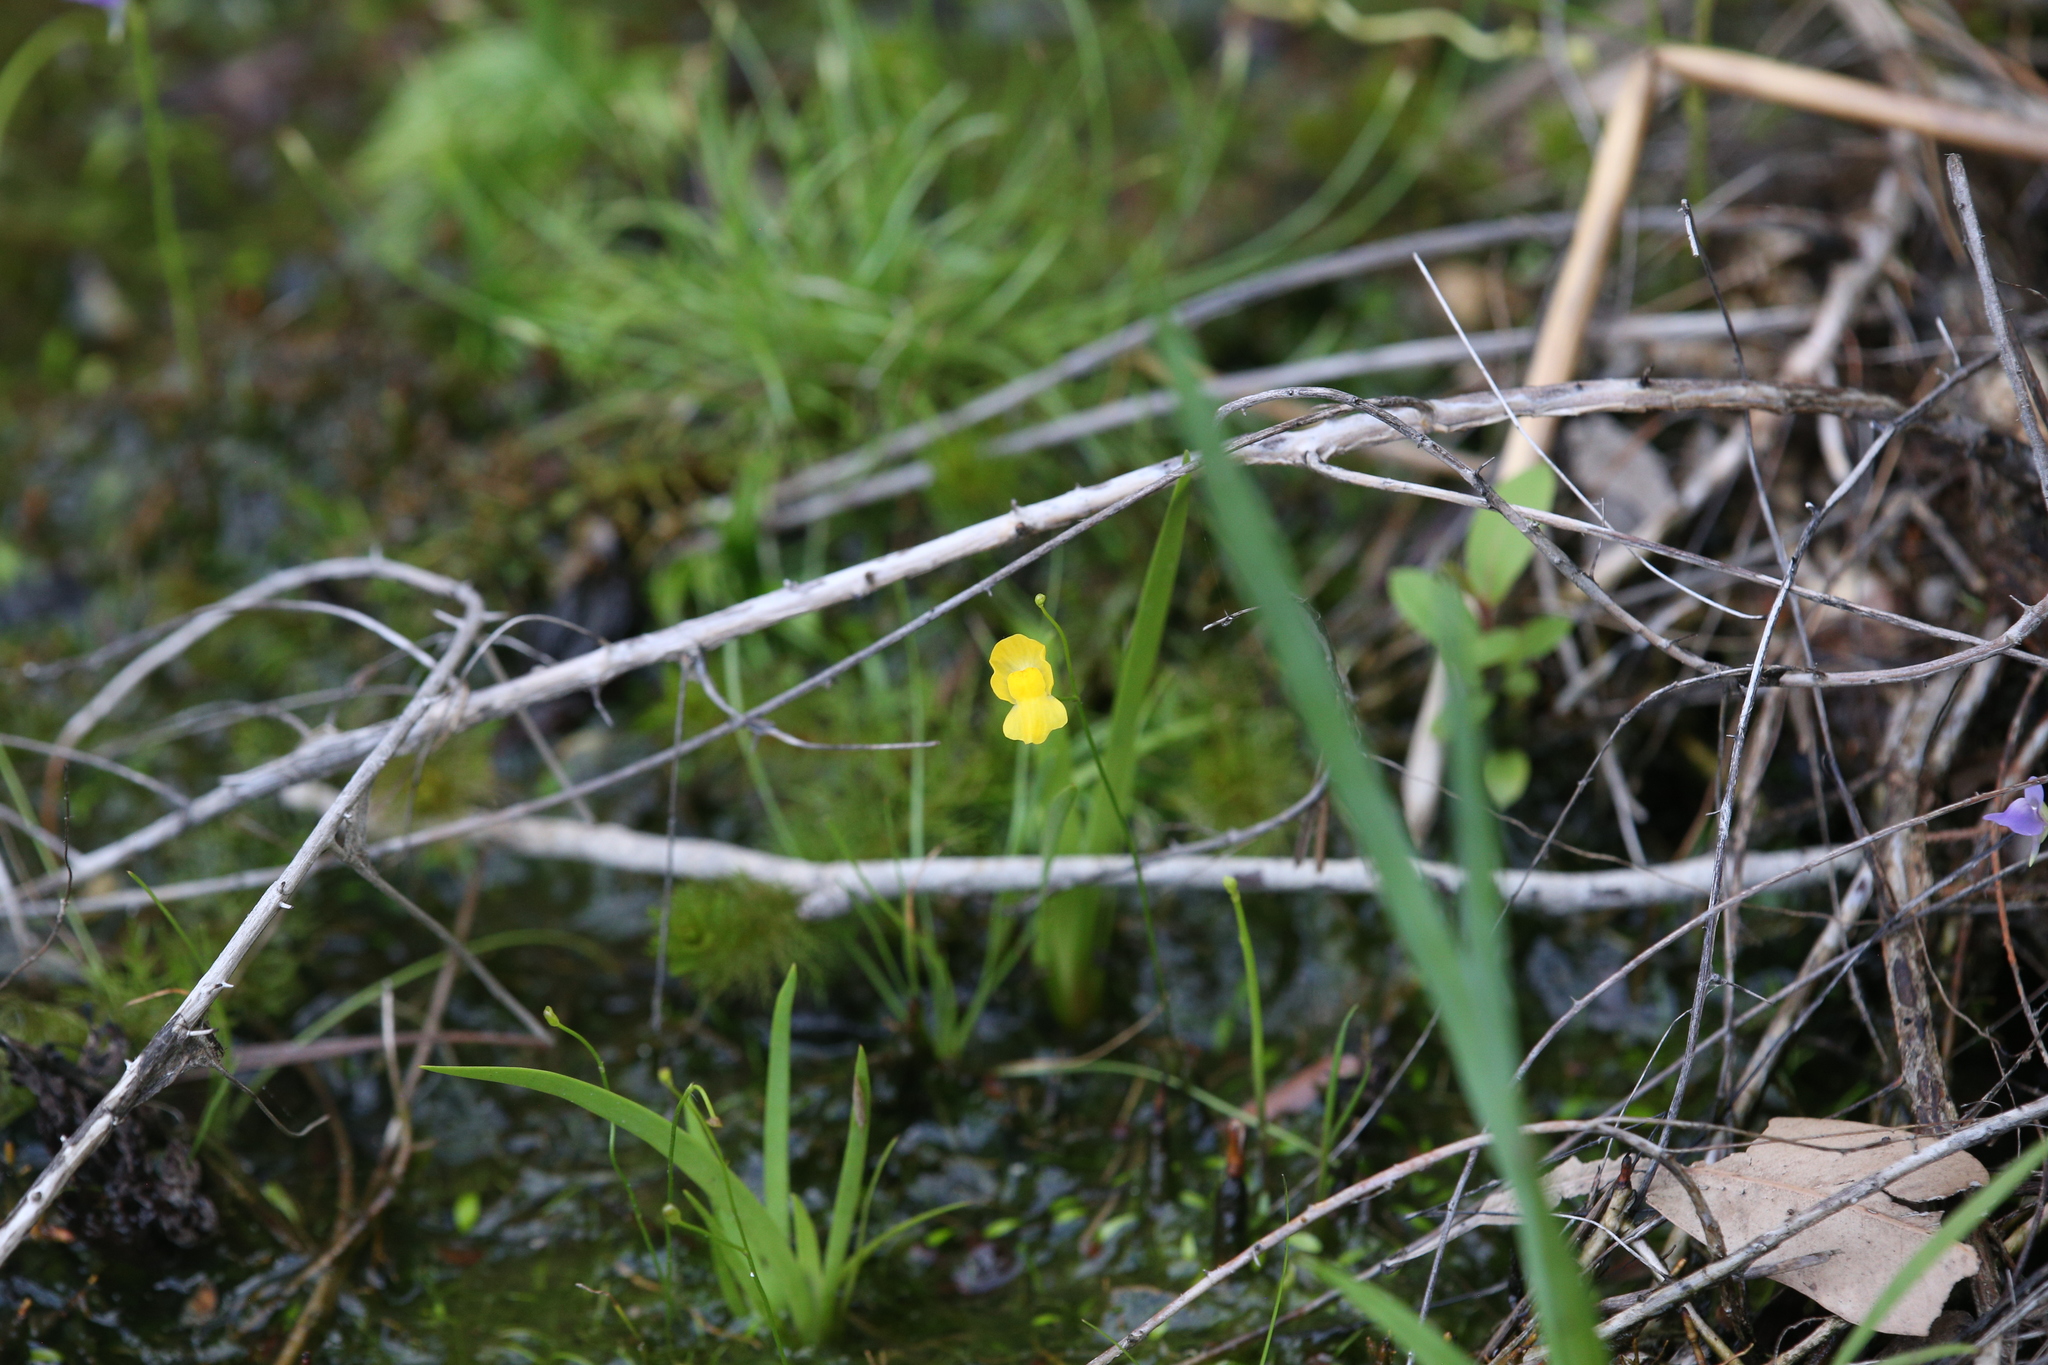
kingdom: Plantae
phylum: Tracheophyta
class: Magnoliopsida
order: Lamiales
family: Lentibulariaceae
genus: Utricularia
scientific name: Utricularia gibba
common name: Humped bladderwort
